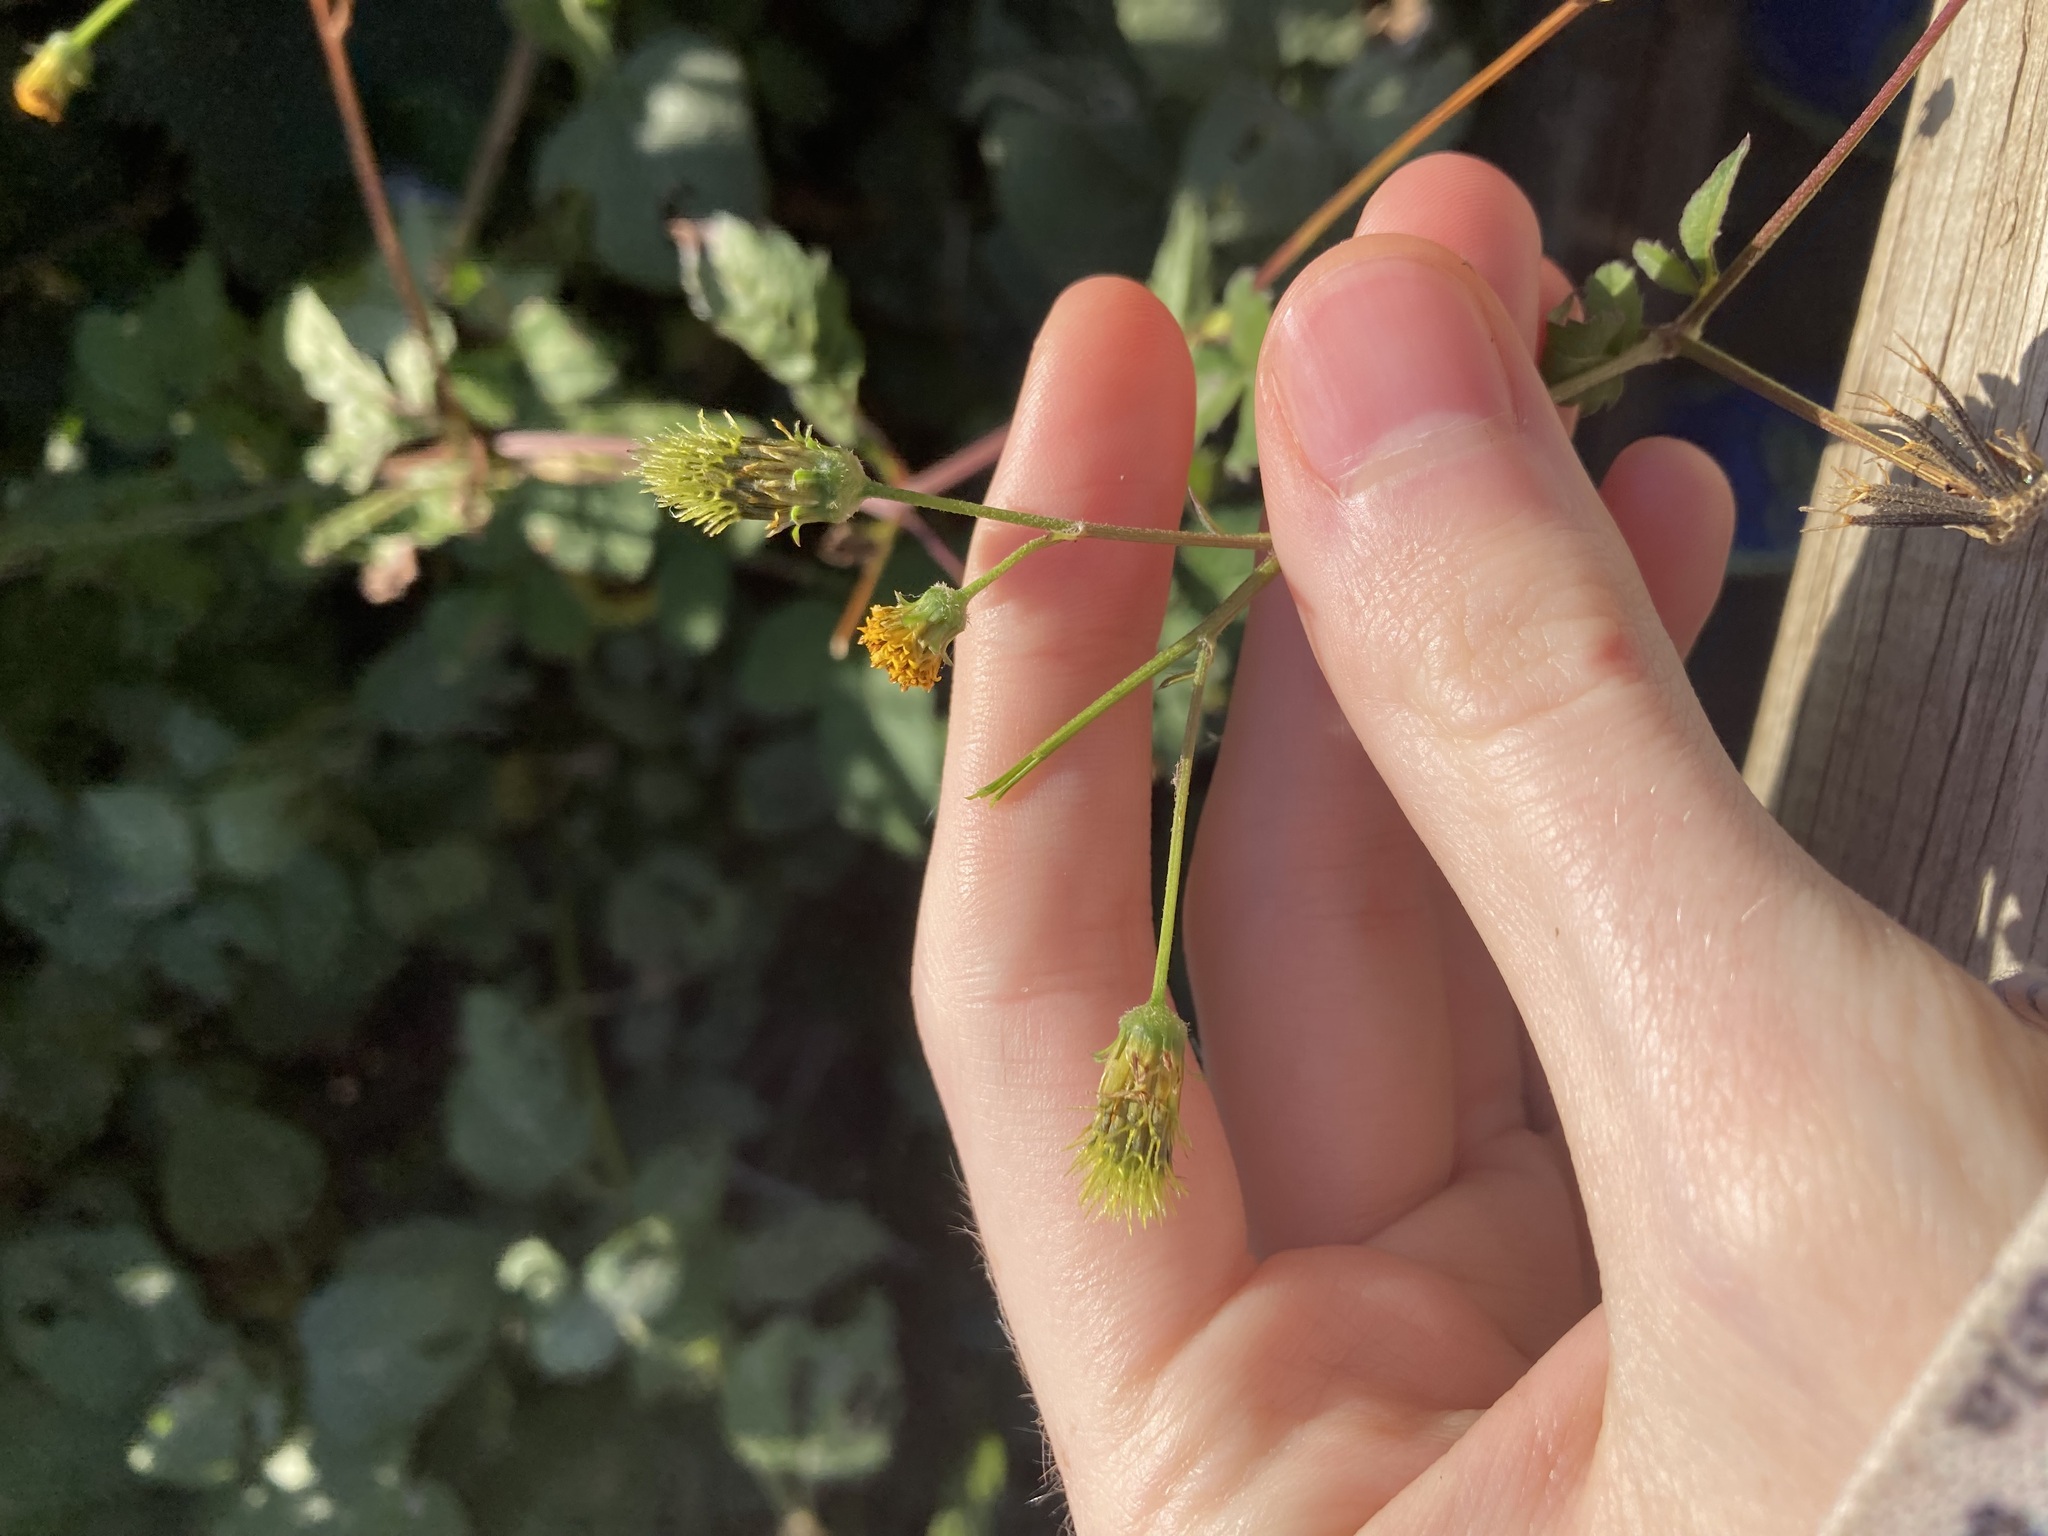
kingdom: Plantae
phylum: Tracheophyta
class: Magnoliopsida
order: Asterales
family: Asteraceae
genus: Bidens
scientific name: Bidens pilosa
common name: Black-jack
